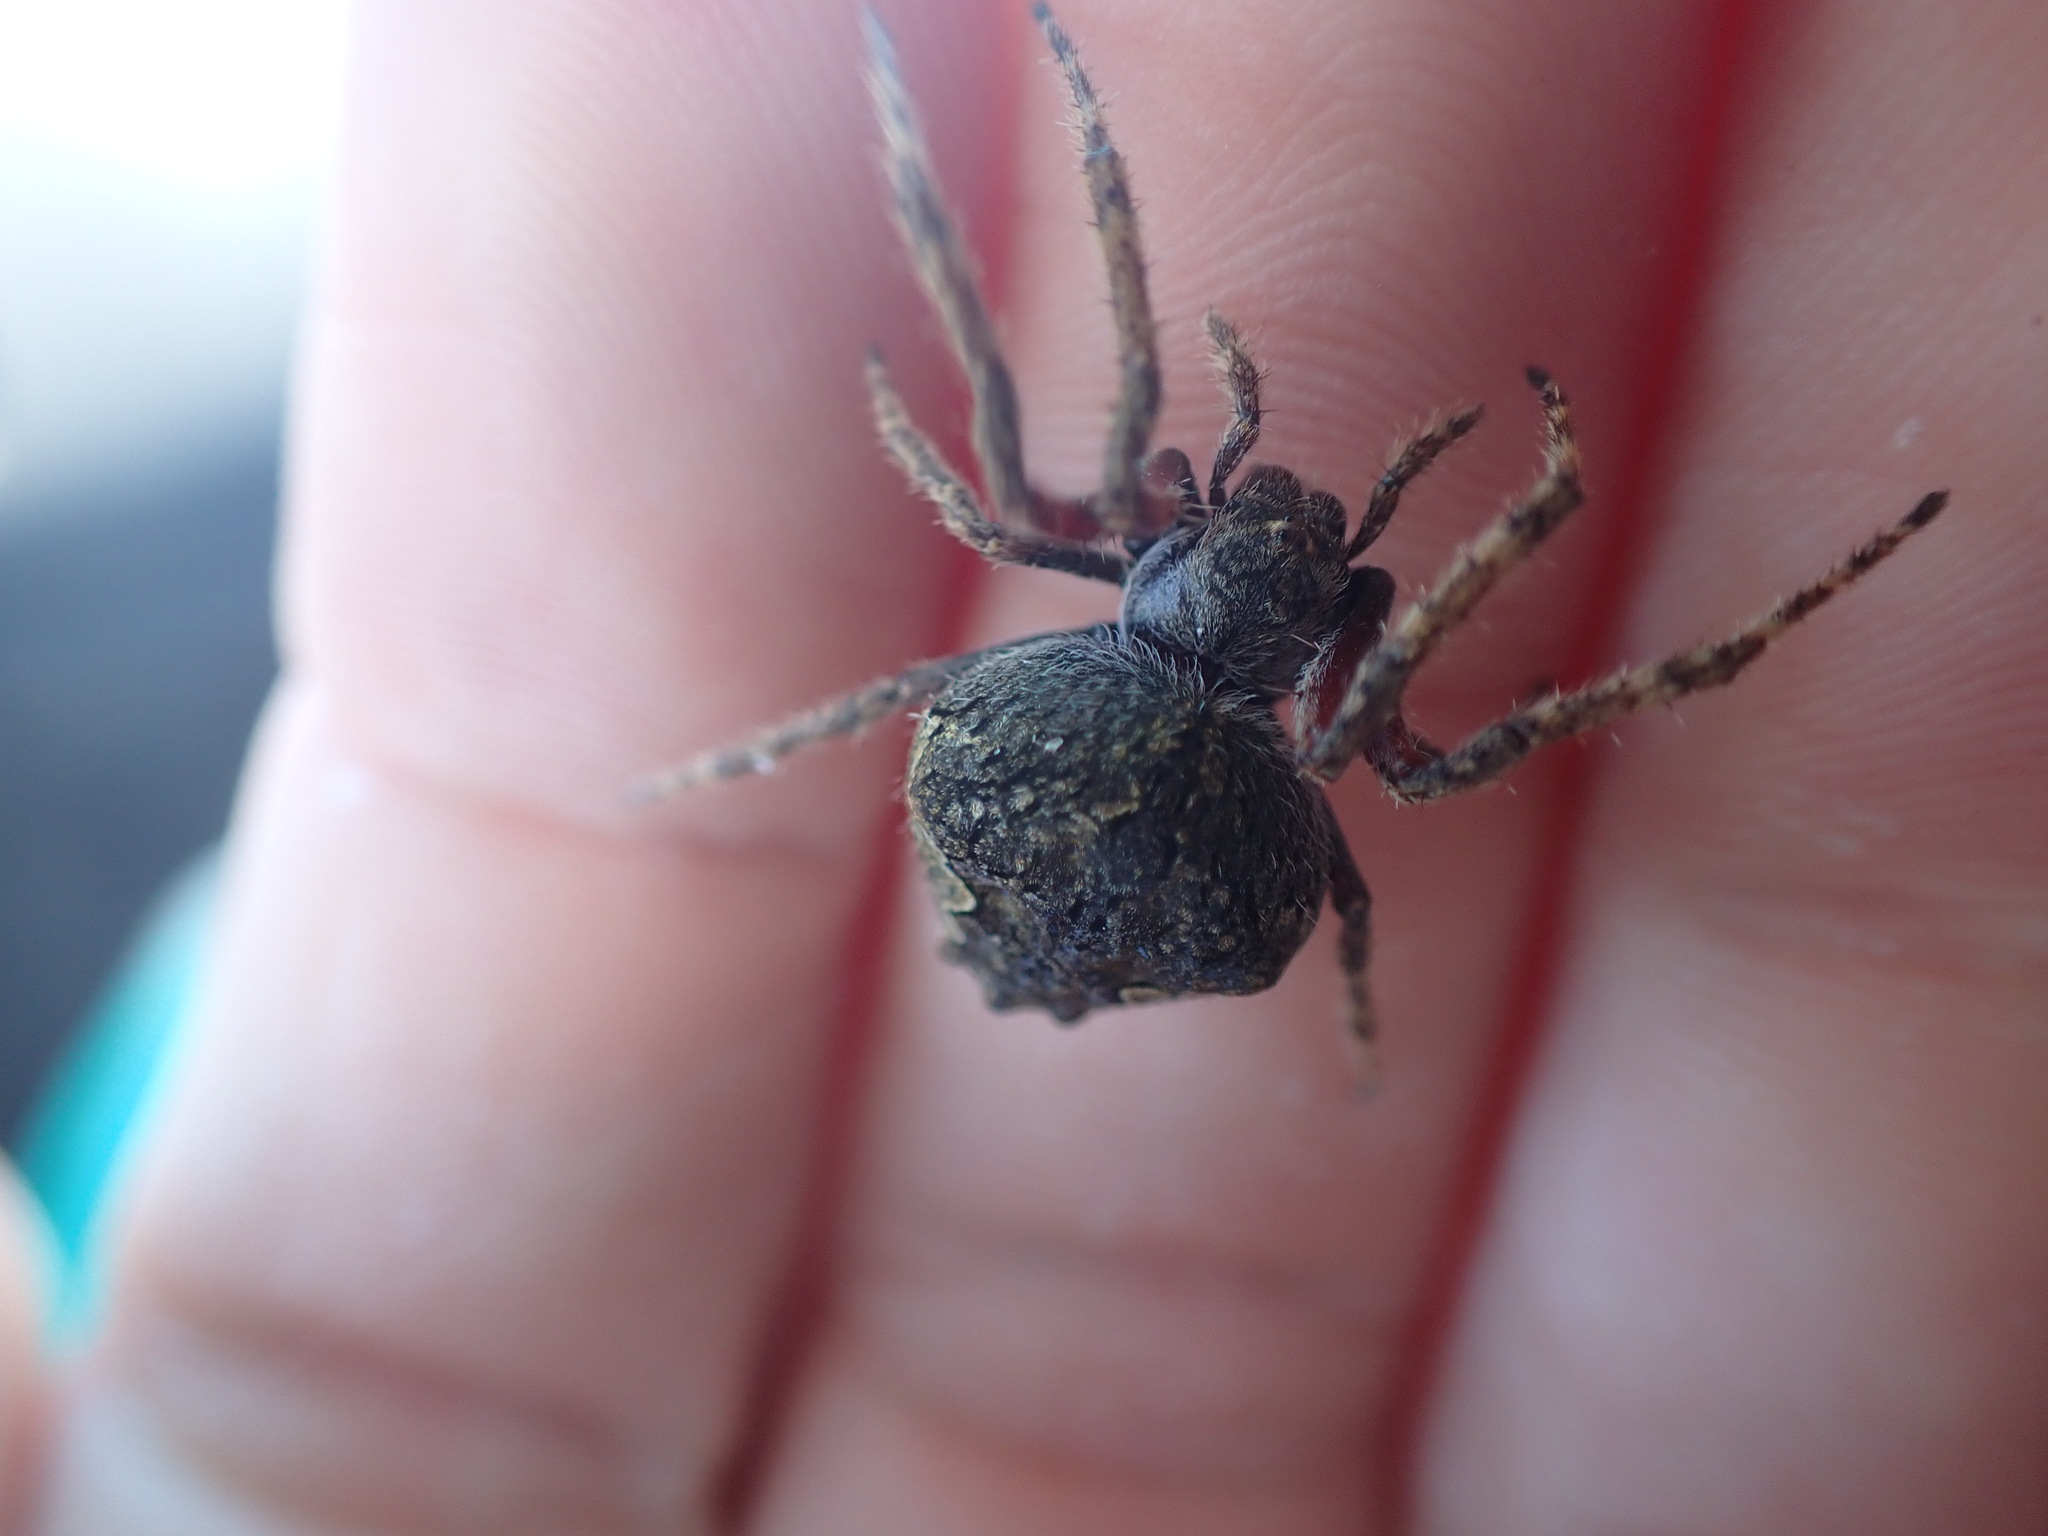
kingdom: Animalia
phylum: Arthropoda
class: Arachnida
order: Araneae
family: Araneidae
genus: Eriophora
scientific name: Eriophora pustulosa
